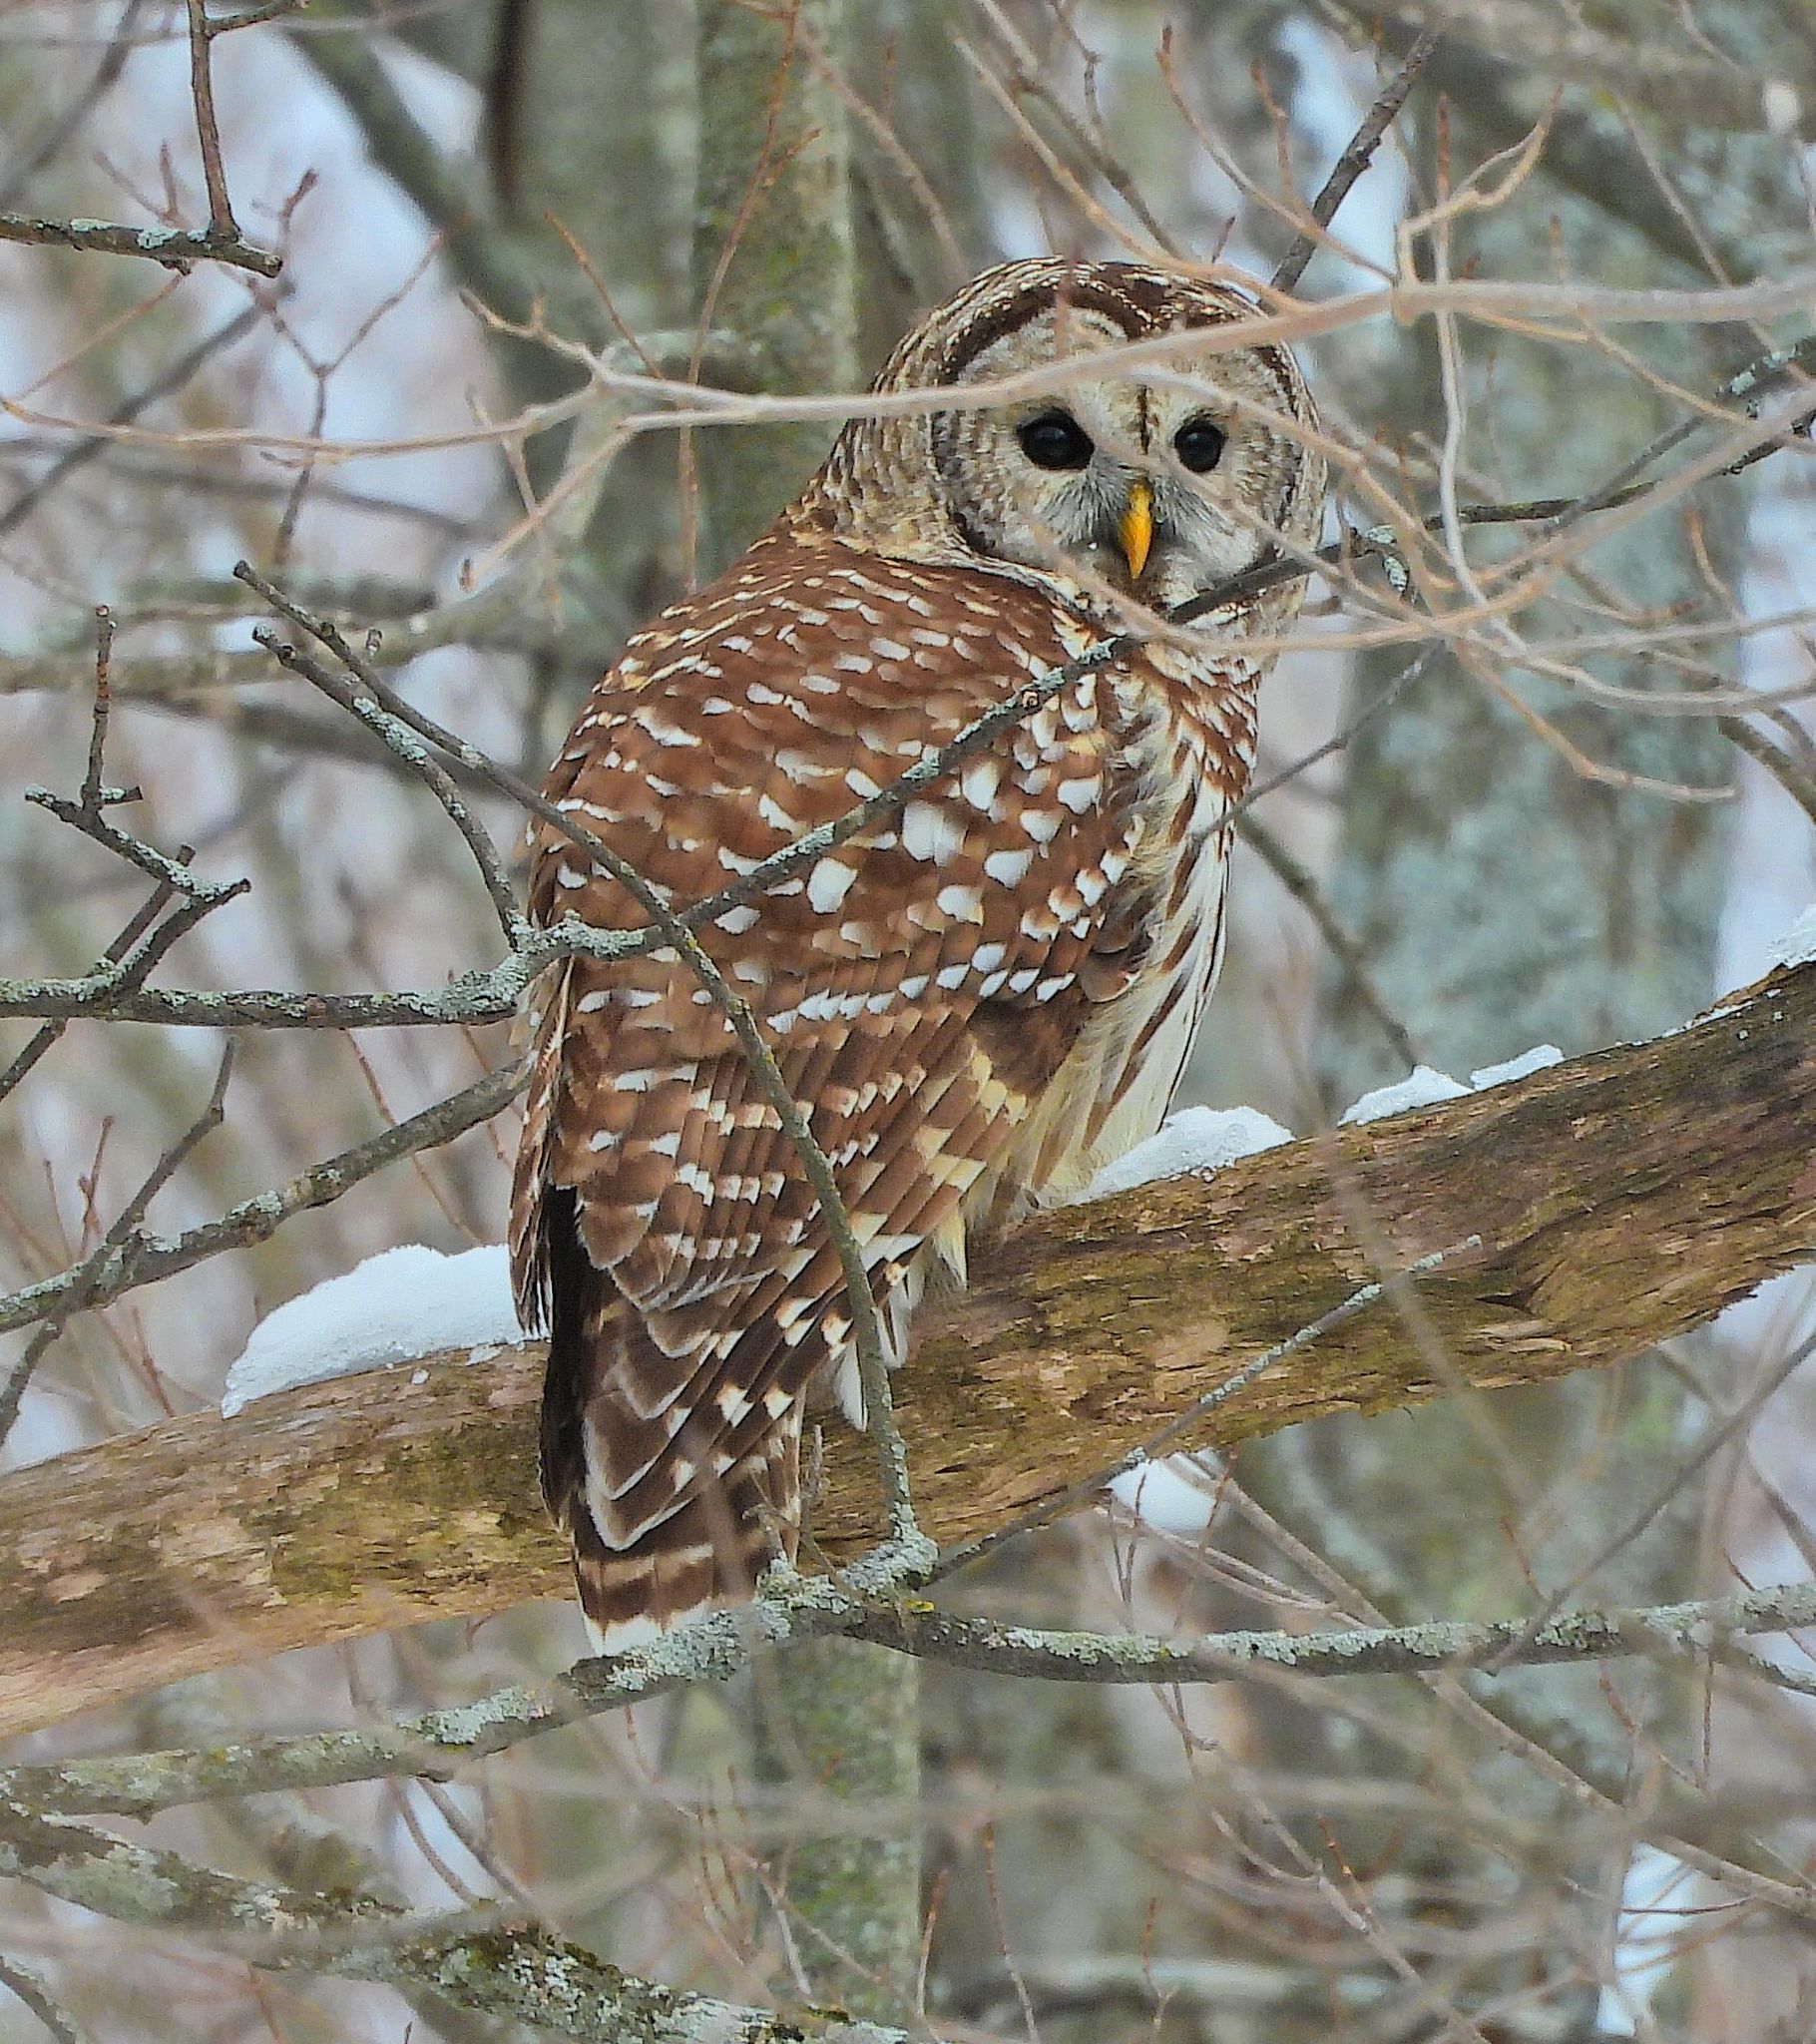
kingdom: Animalia
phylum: Chordata
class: Aves
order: Strigiformes
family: Strigidae
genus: Strix
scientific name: Strix varia
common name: Barred owl
